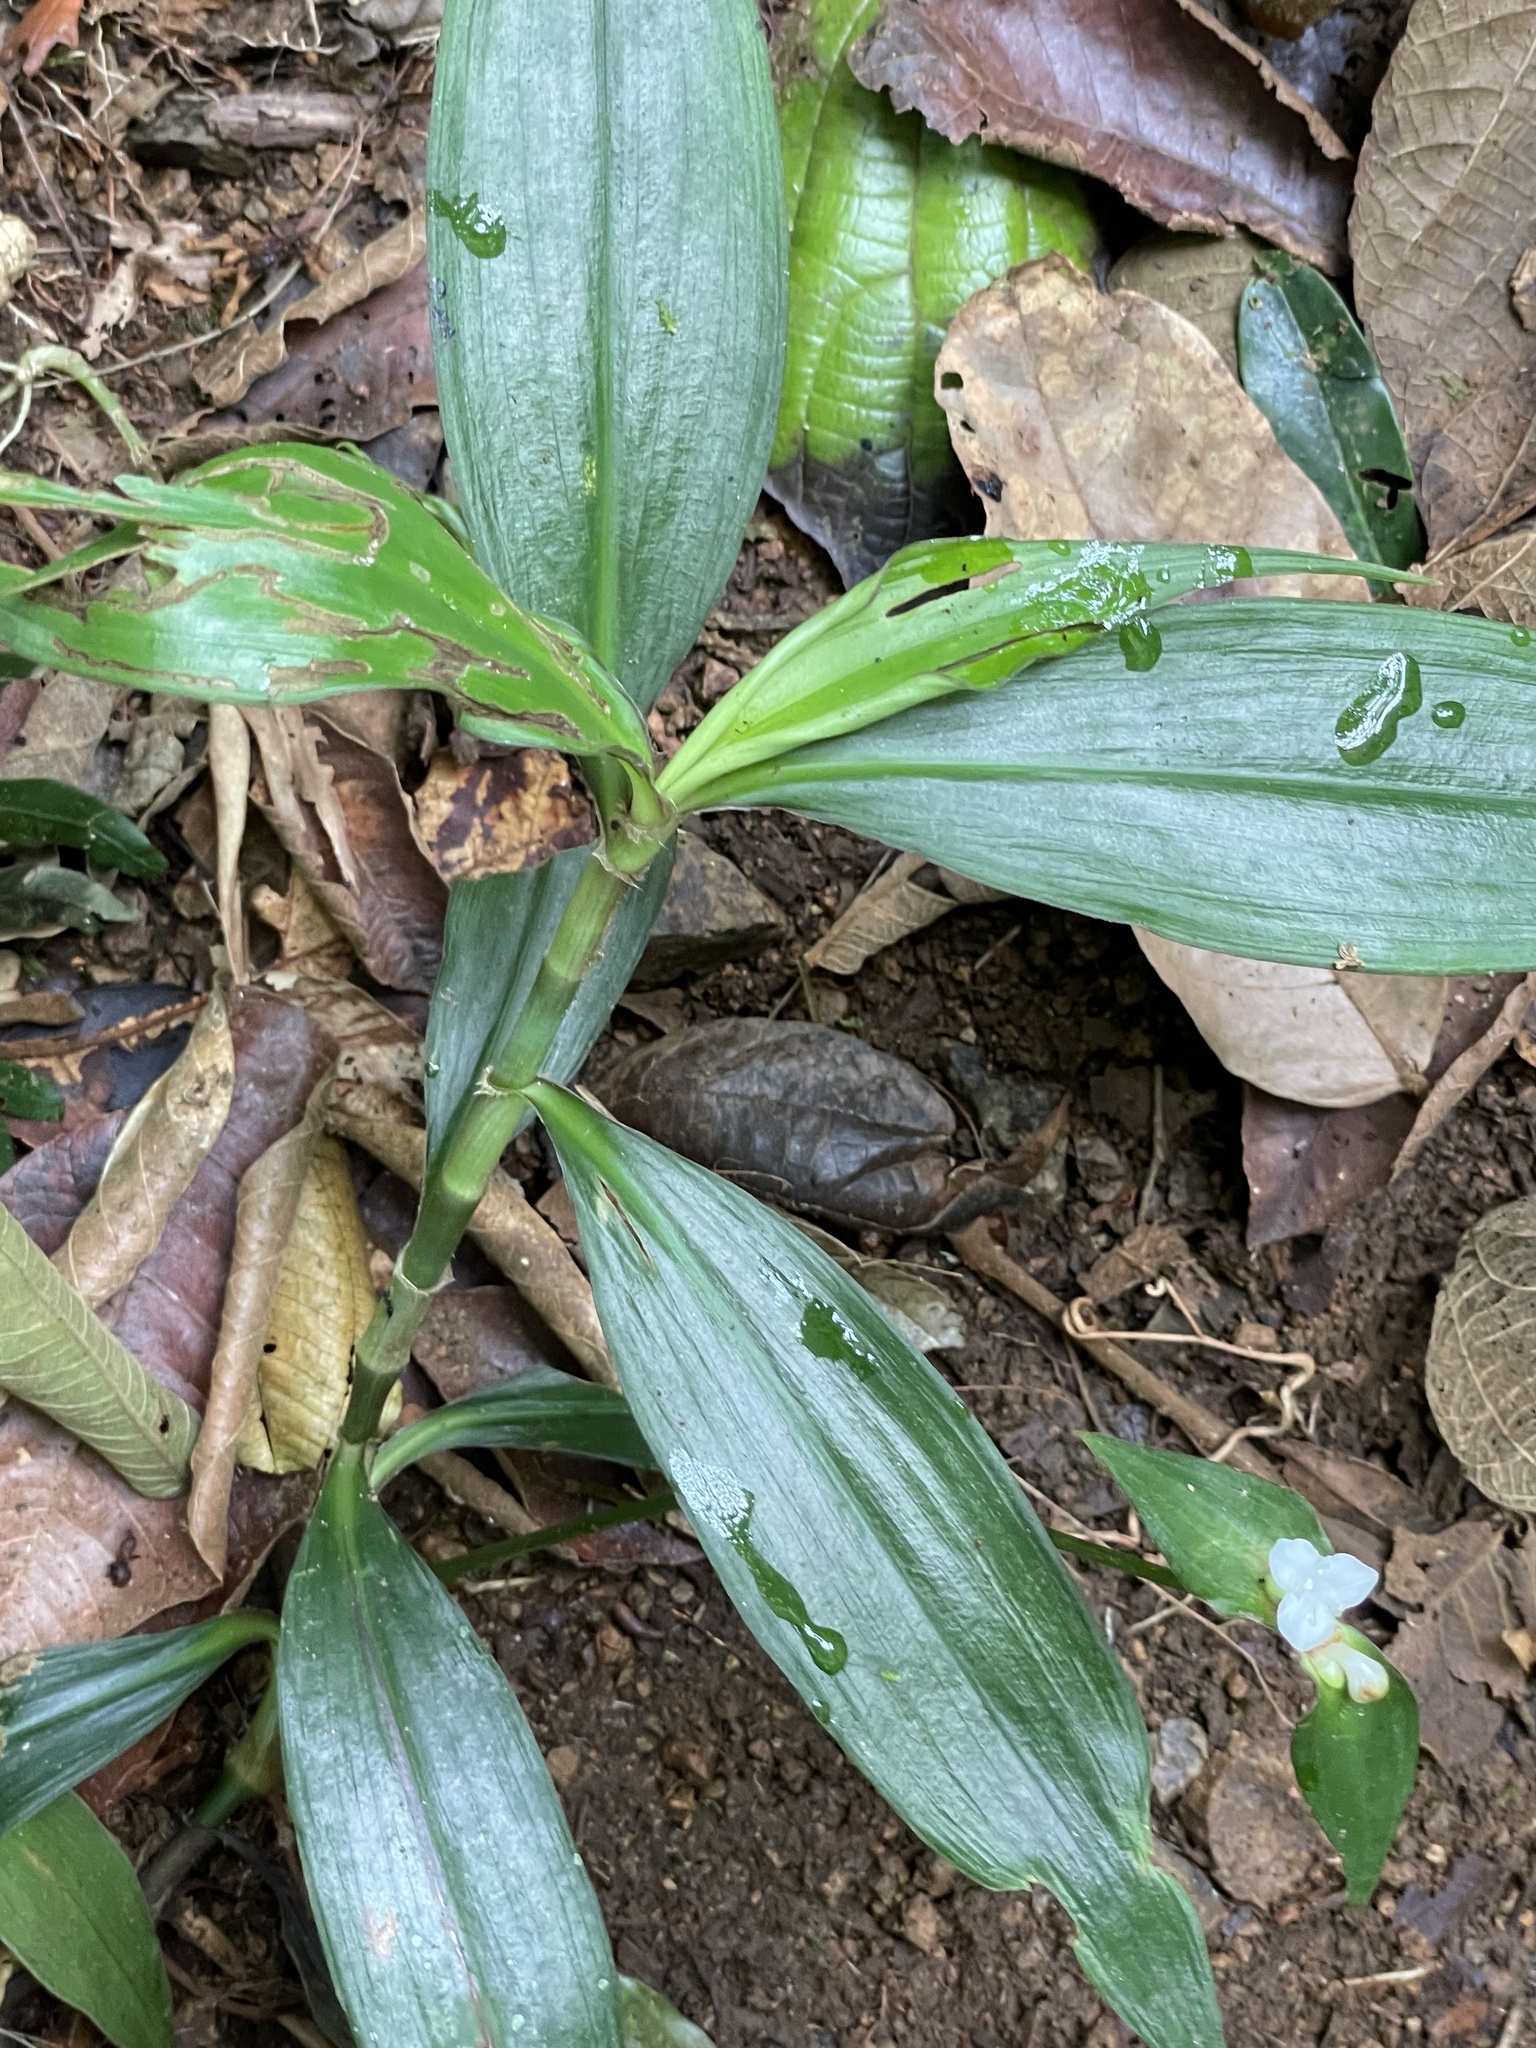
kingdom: Plantae
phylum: Tracheophyta
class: Liliopsida
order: Commelinales
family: Commelinaceae
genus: Tradescantia
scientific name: Tradescantia zanonia
